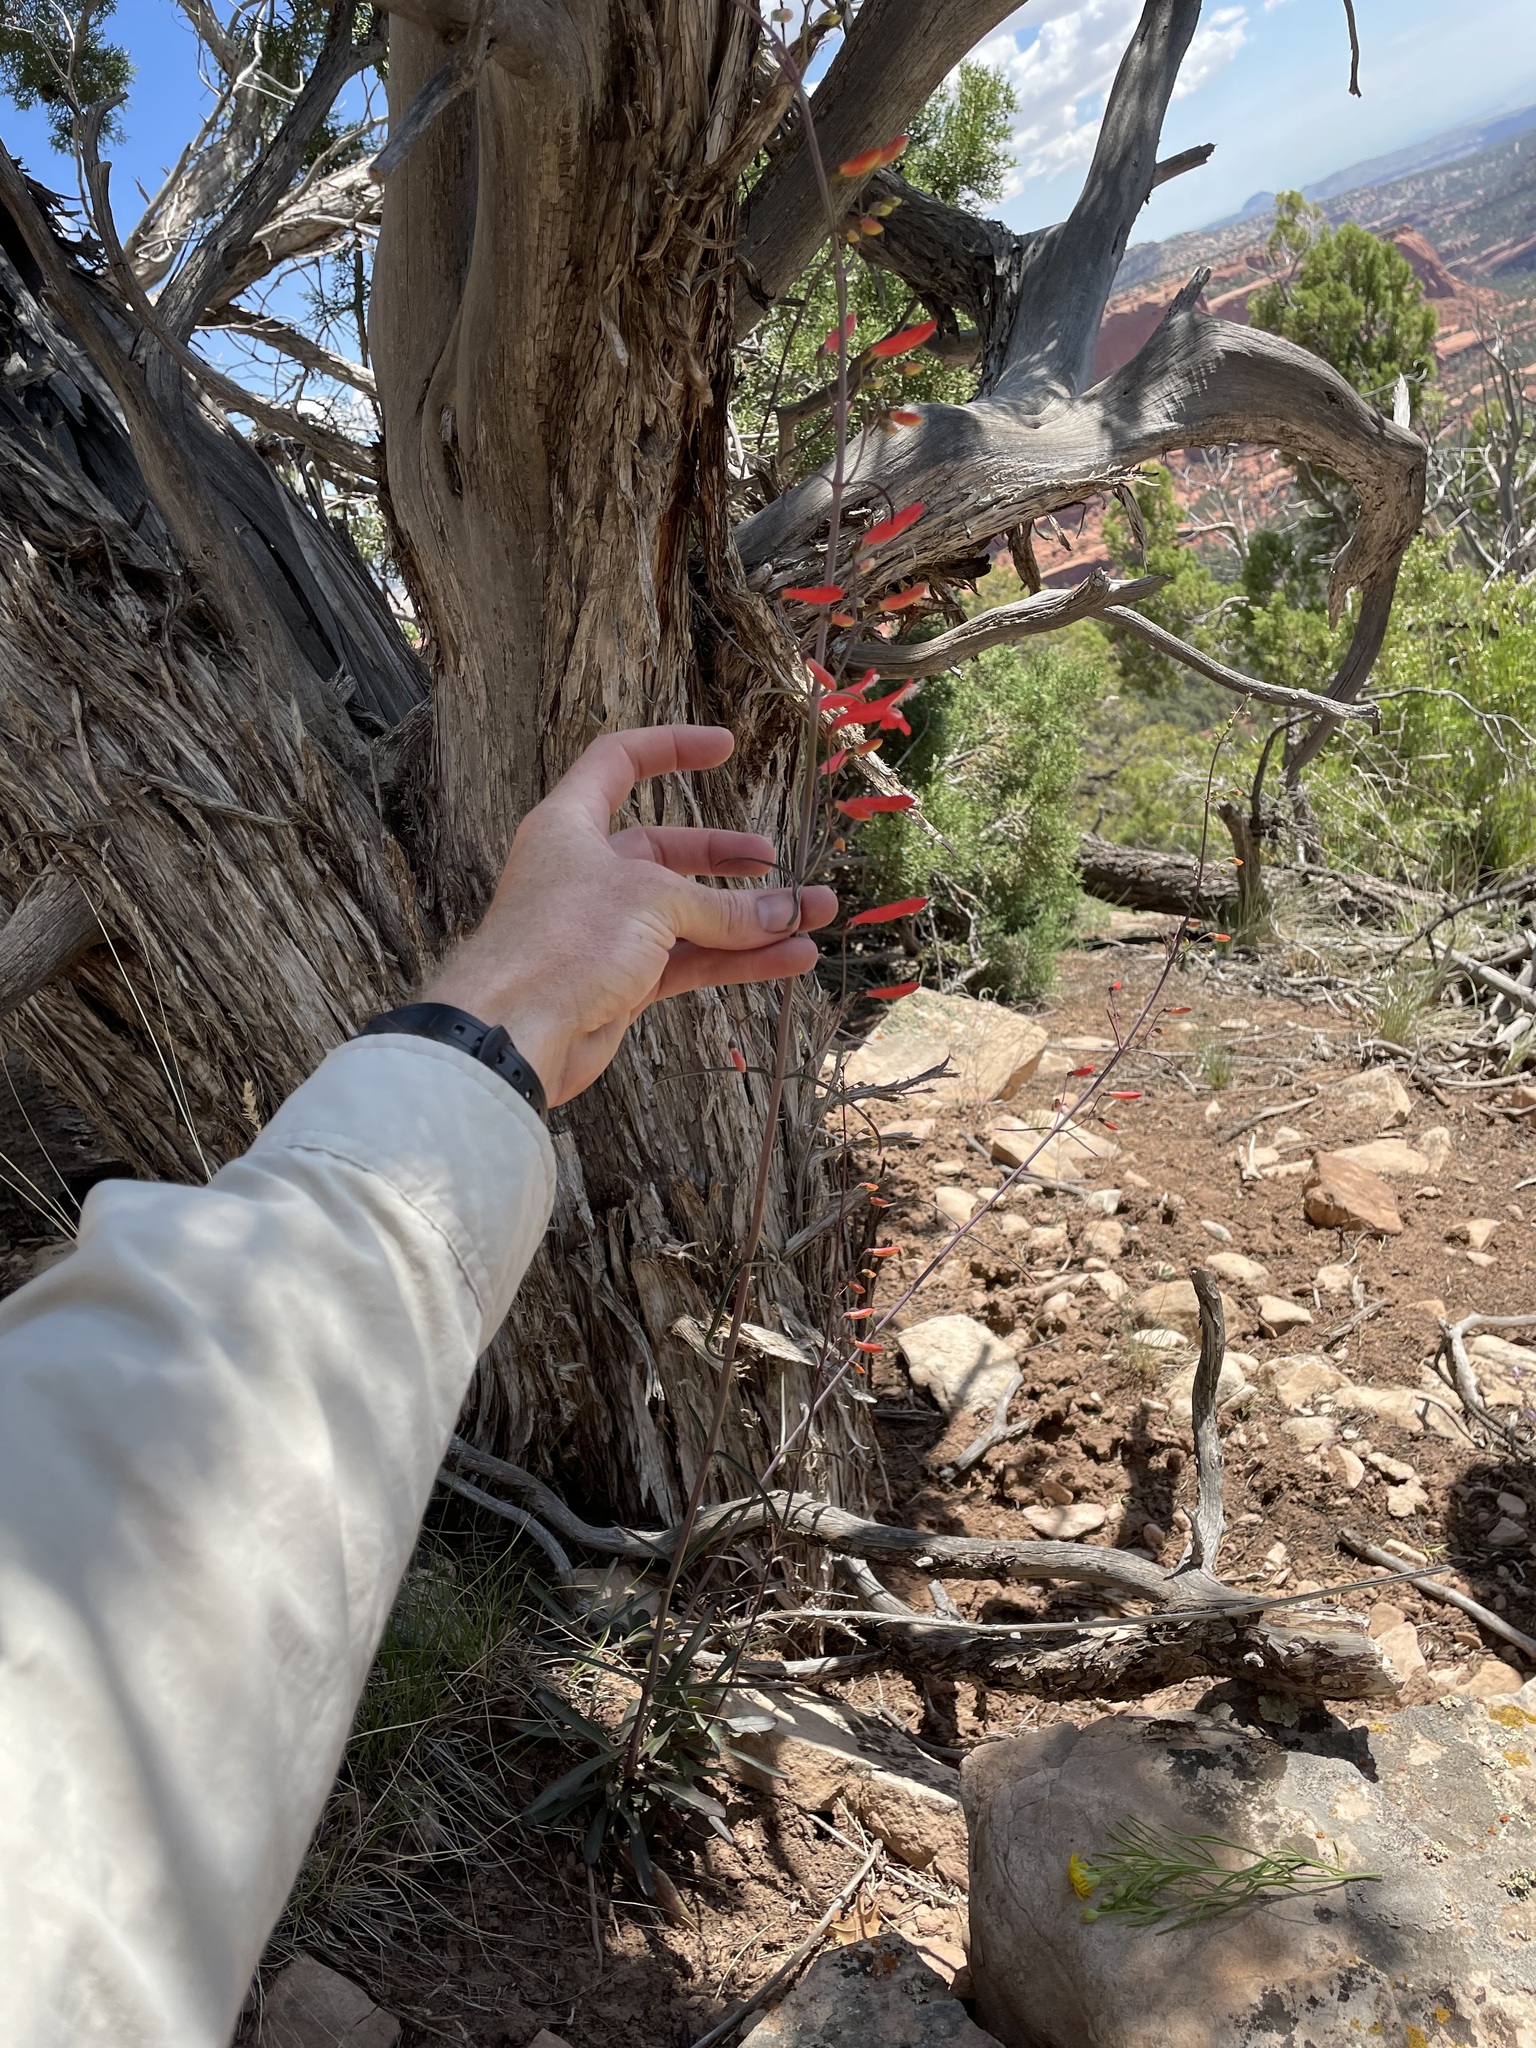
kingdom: Plantae
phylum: Tracheophyta
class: Magnoliopsida
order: Lamiales
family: Plantaginaceae
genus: Penstemon
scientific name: Penstemon barbatus
